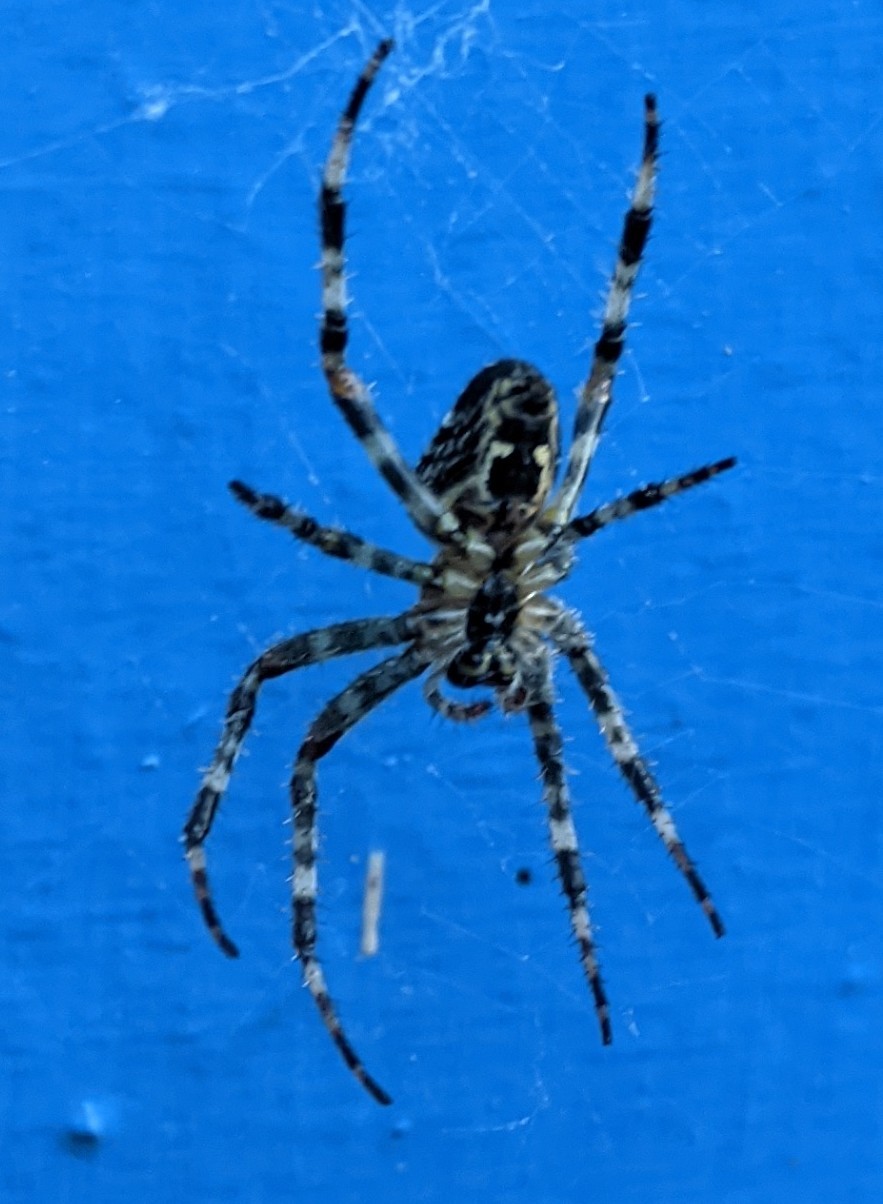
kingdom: Animalia
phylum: Arthropoda
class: Arachnida
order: Araneae
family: Araneidae
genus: Araneus
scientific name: Araneus diadematus
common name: Cross orbweaver
